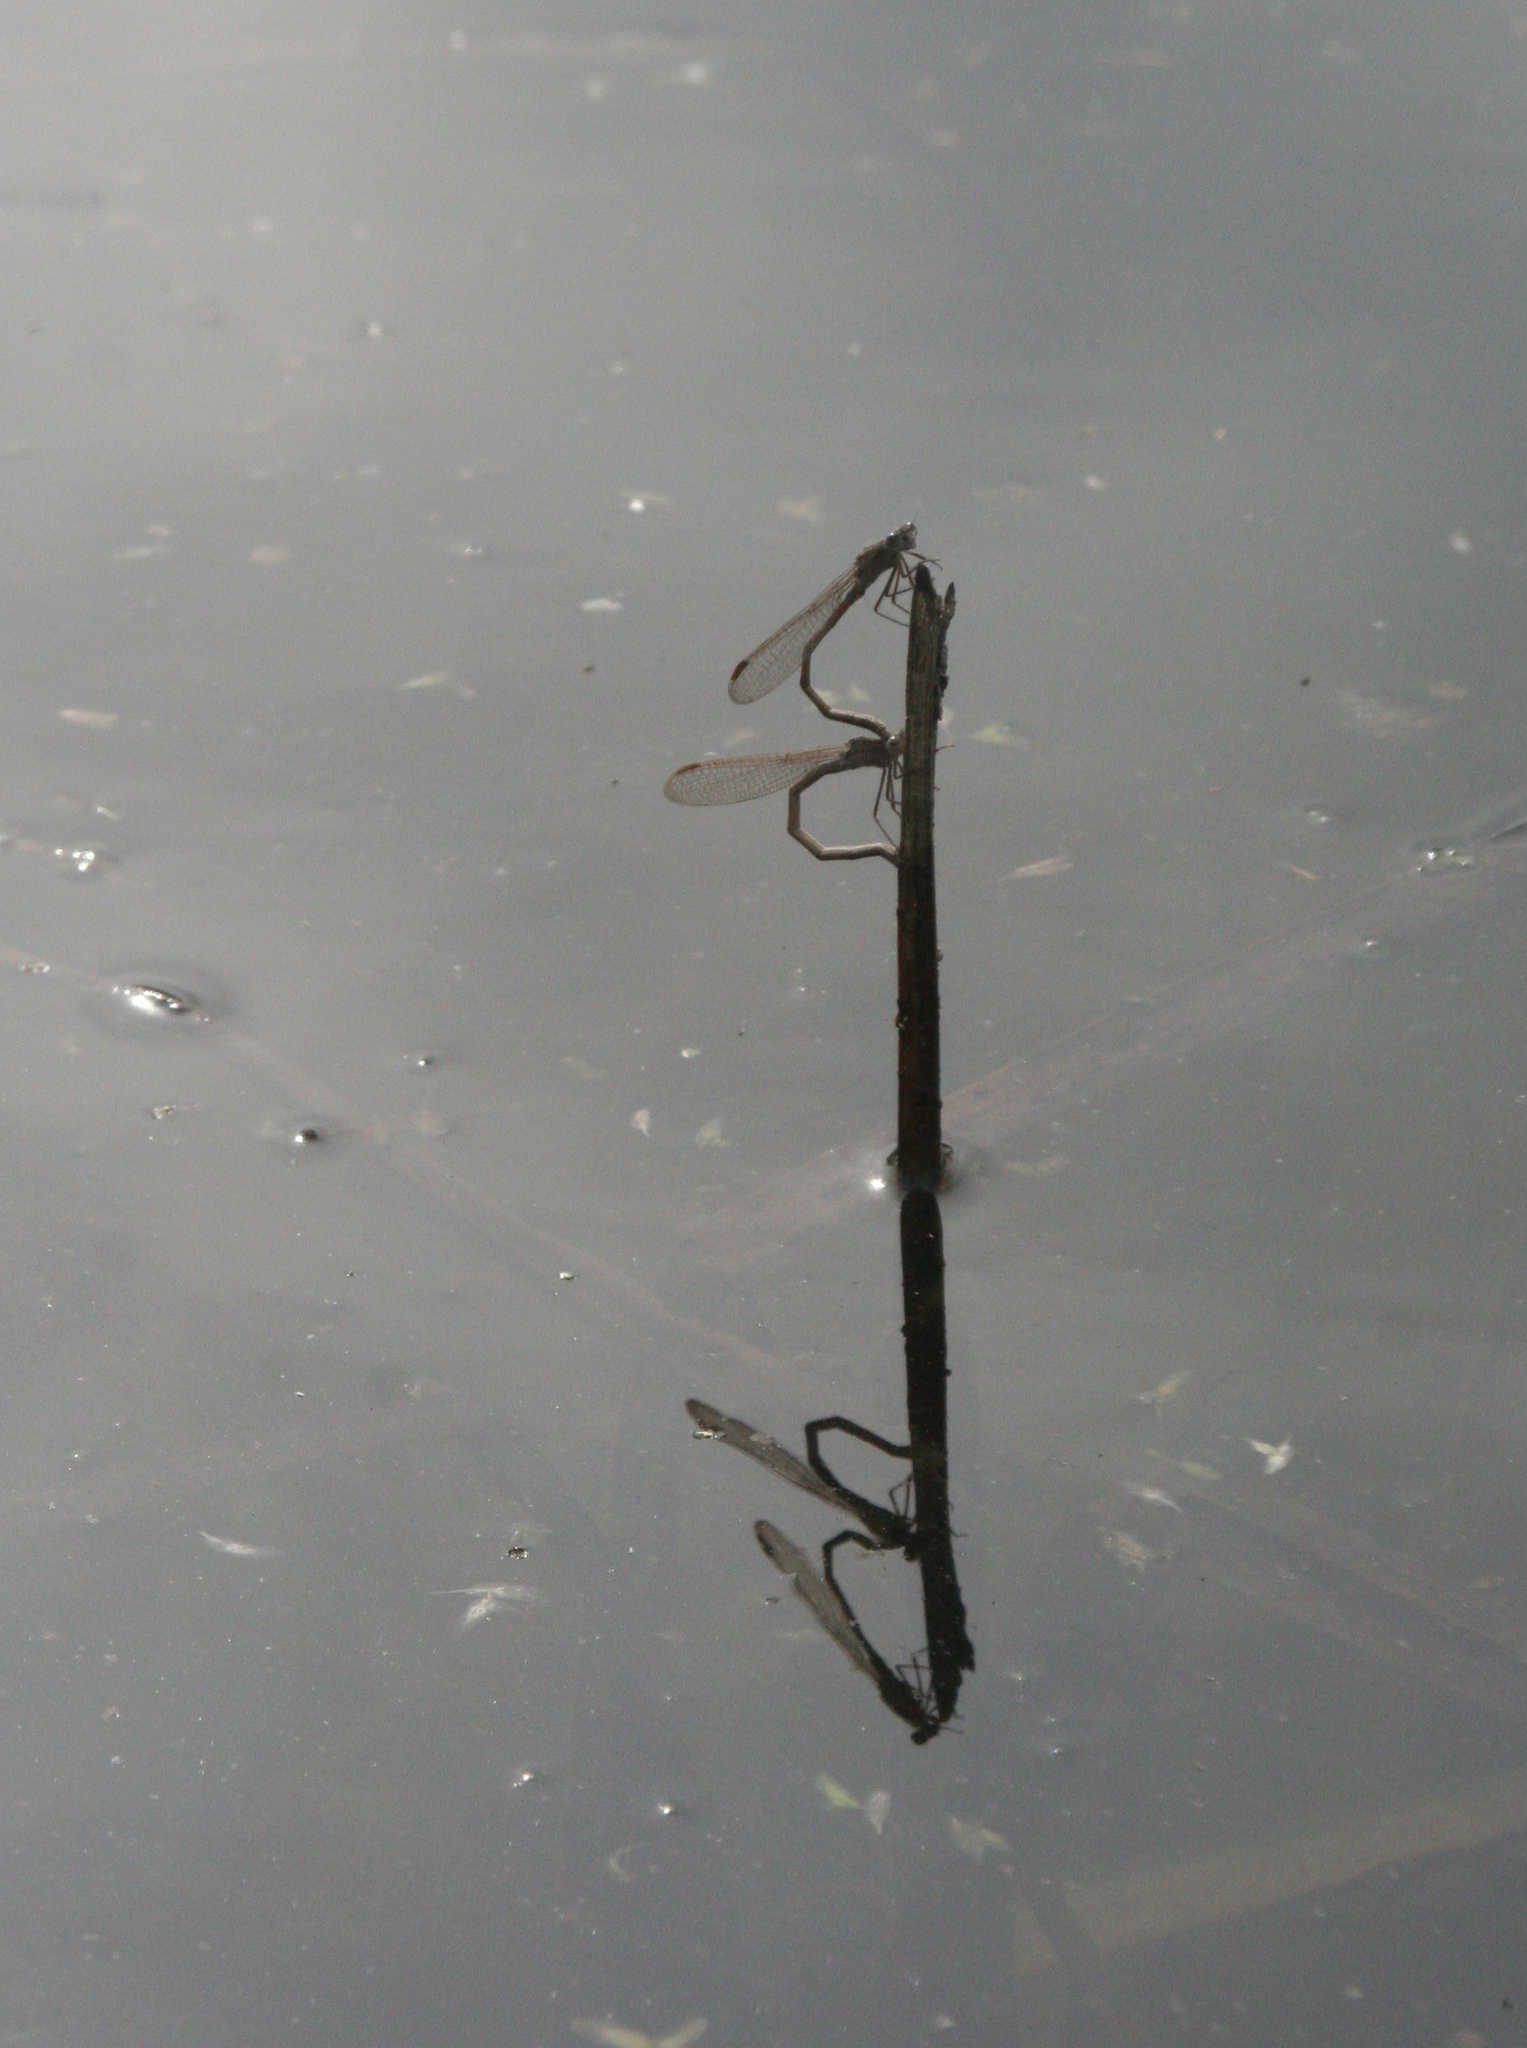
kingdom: Animalia
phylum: Arthropoda
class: Insecta
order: Odonata
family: Lestidae
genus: Sympecma
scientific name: Sympecma paedisca
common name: Siberian winter damsel
